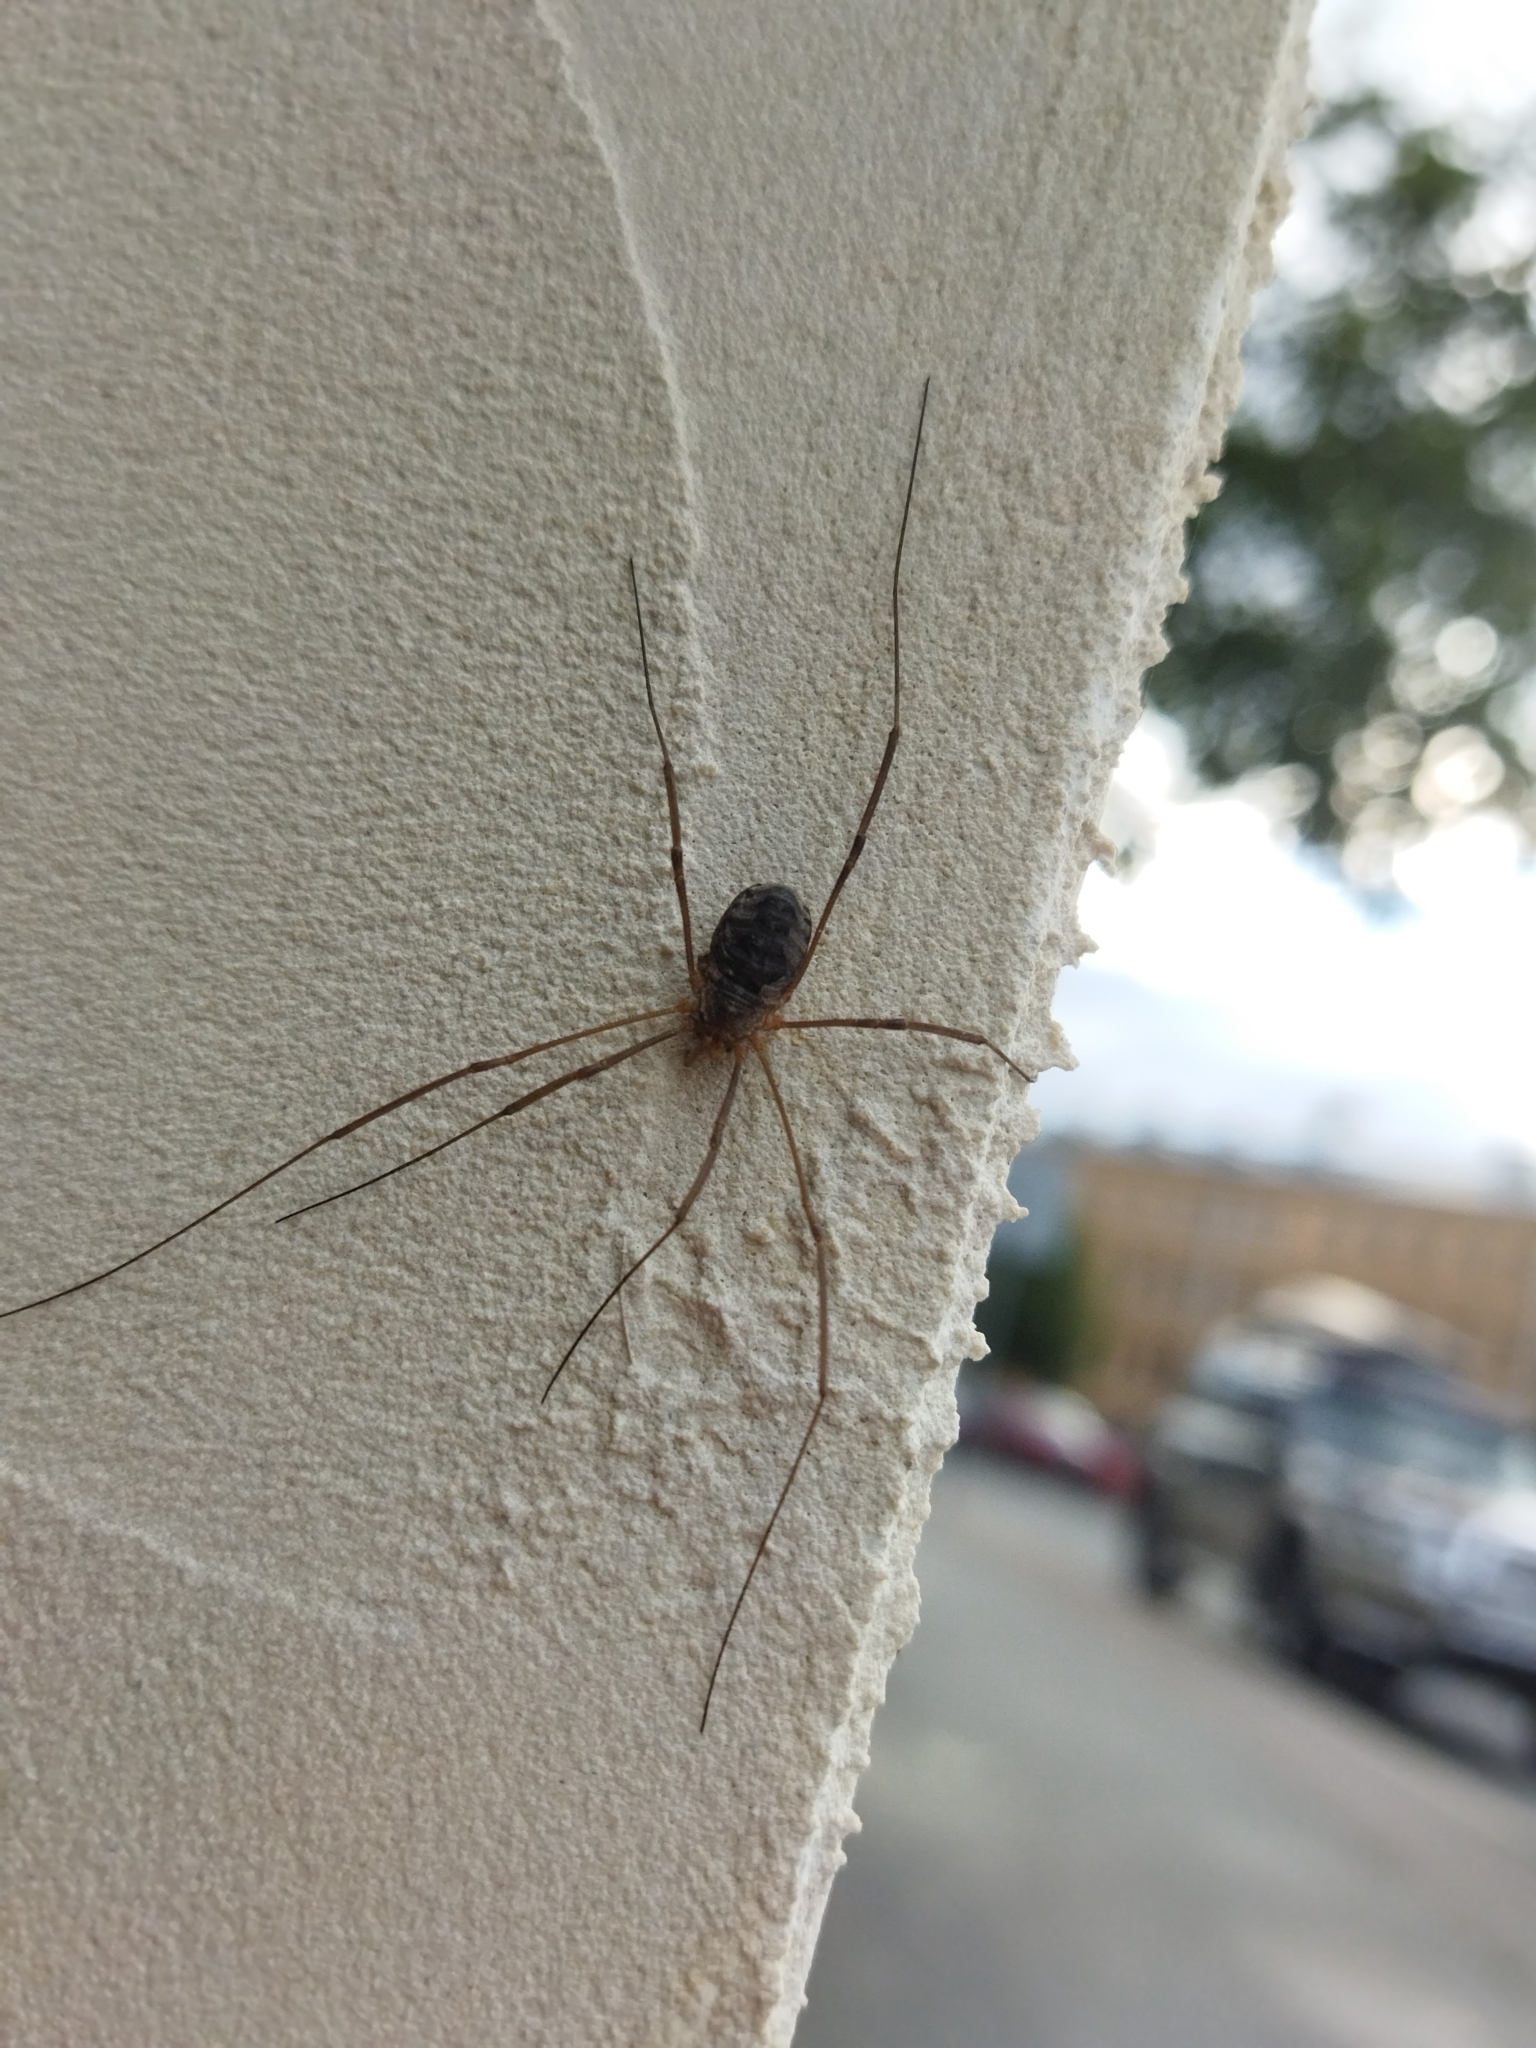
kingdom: Animalia
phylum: Arthropoda
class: Arachnida
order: Opiliones
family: Phalangiidae
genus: Phalangium
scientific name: Phalangium opilio
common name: Daddy longleg
